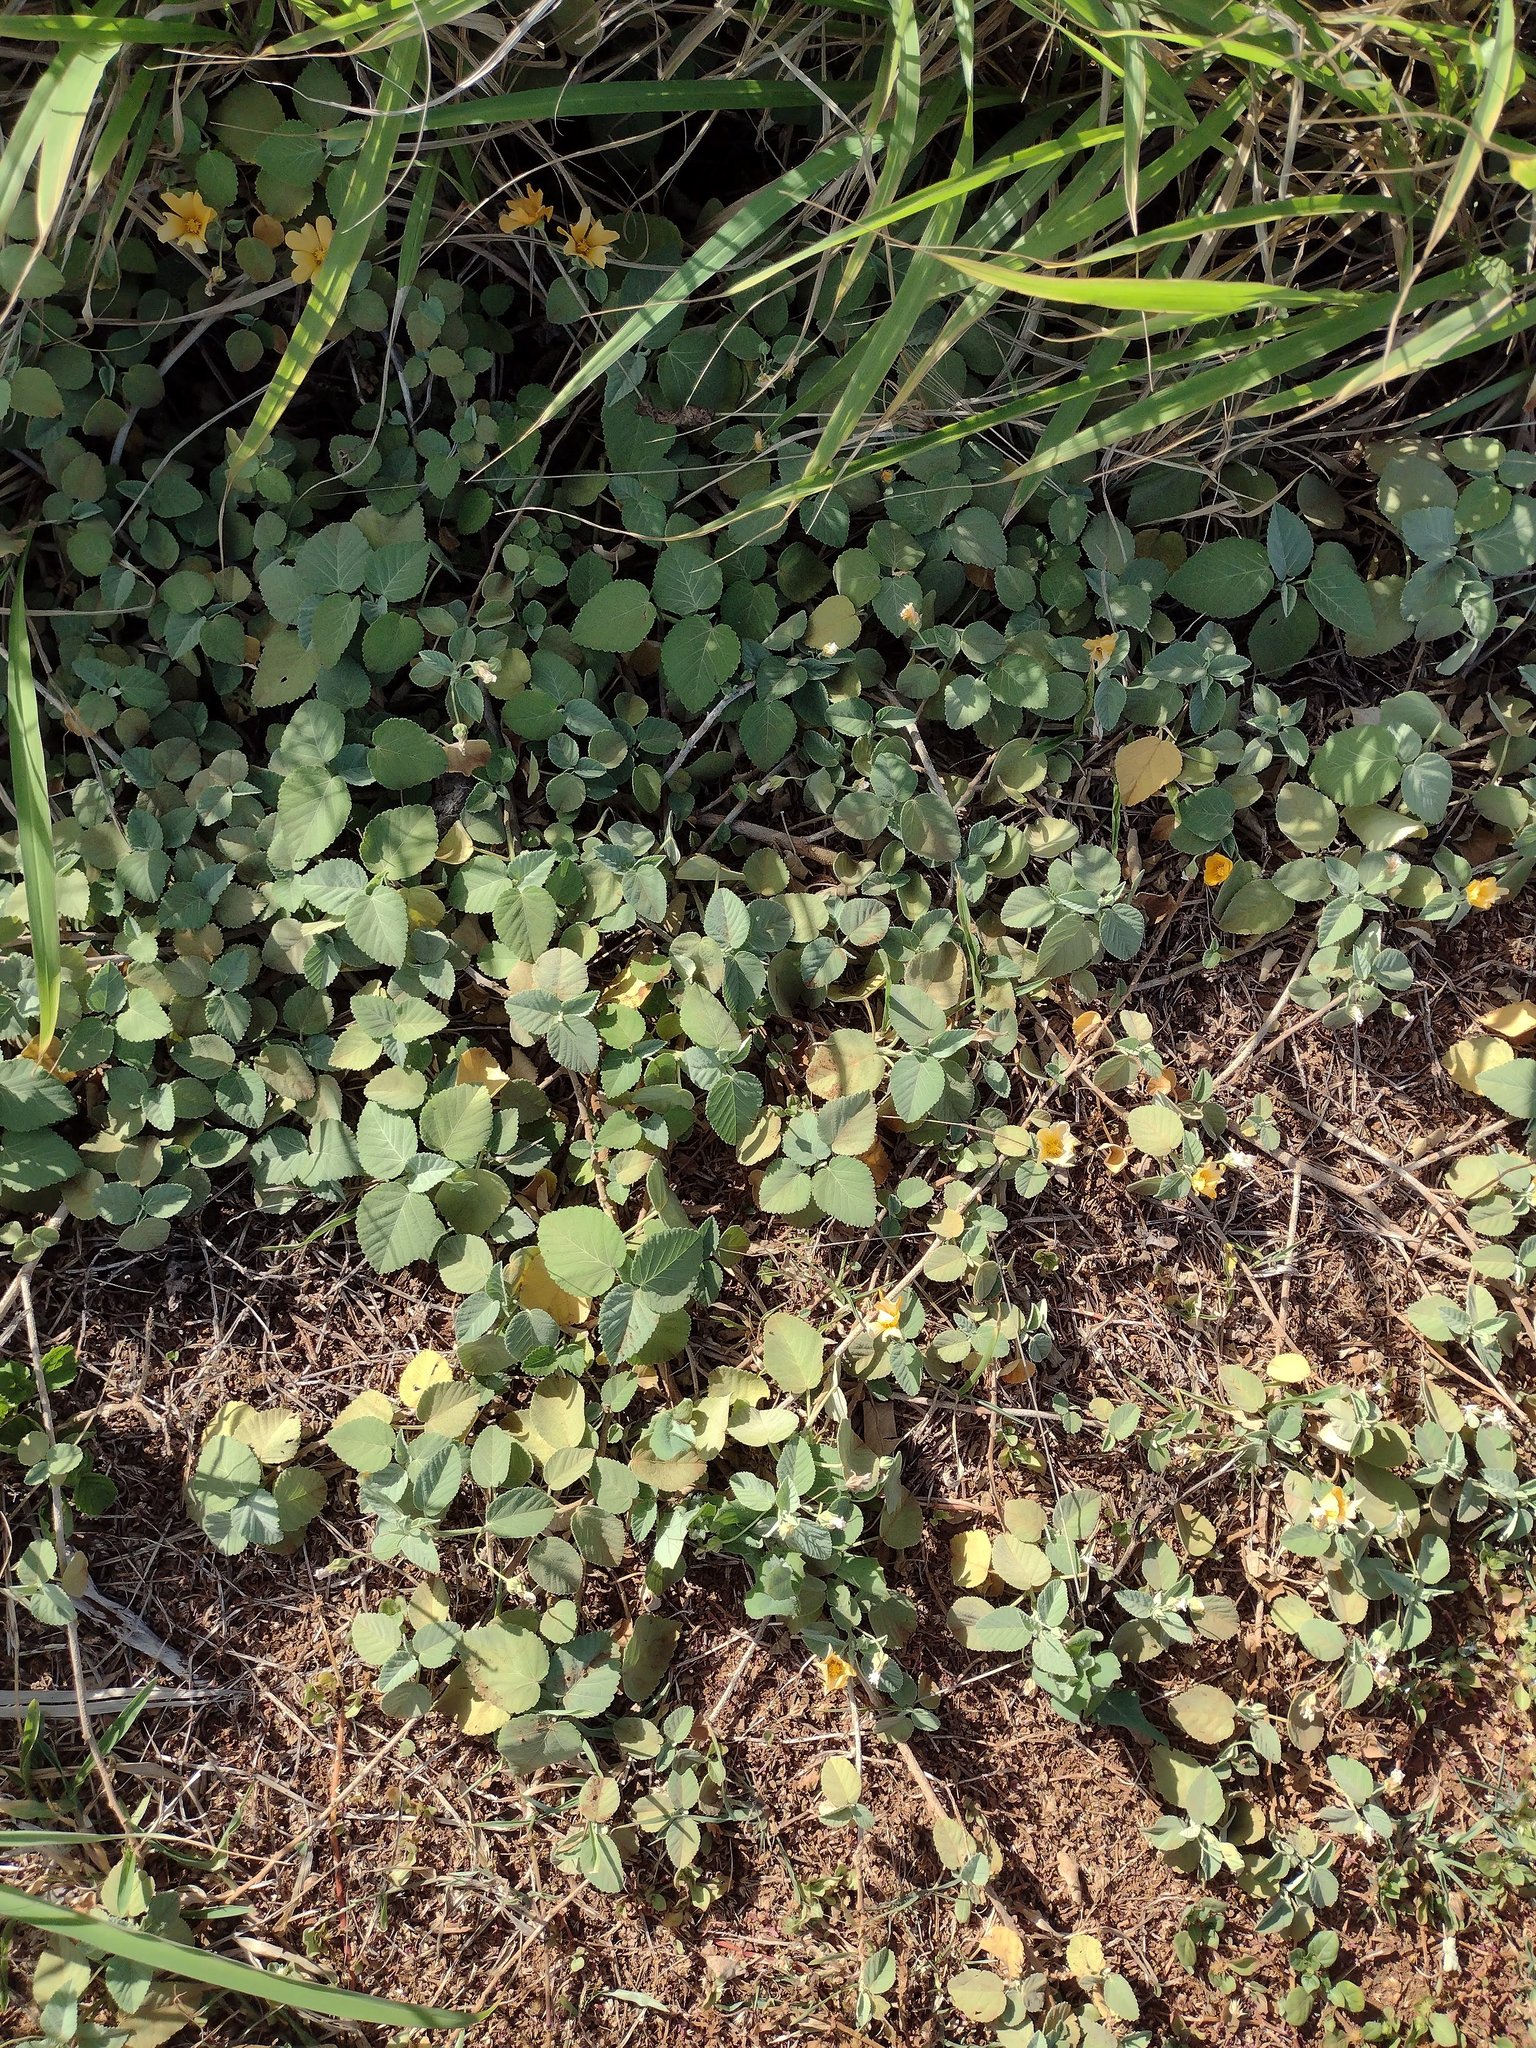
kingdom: Plantae
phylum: Tracheophyta
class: Magnoliopsida
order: Malvales
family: Malvaceae
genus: Sida
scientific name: Sida fallax
